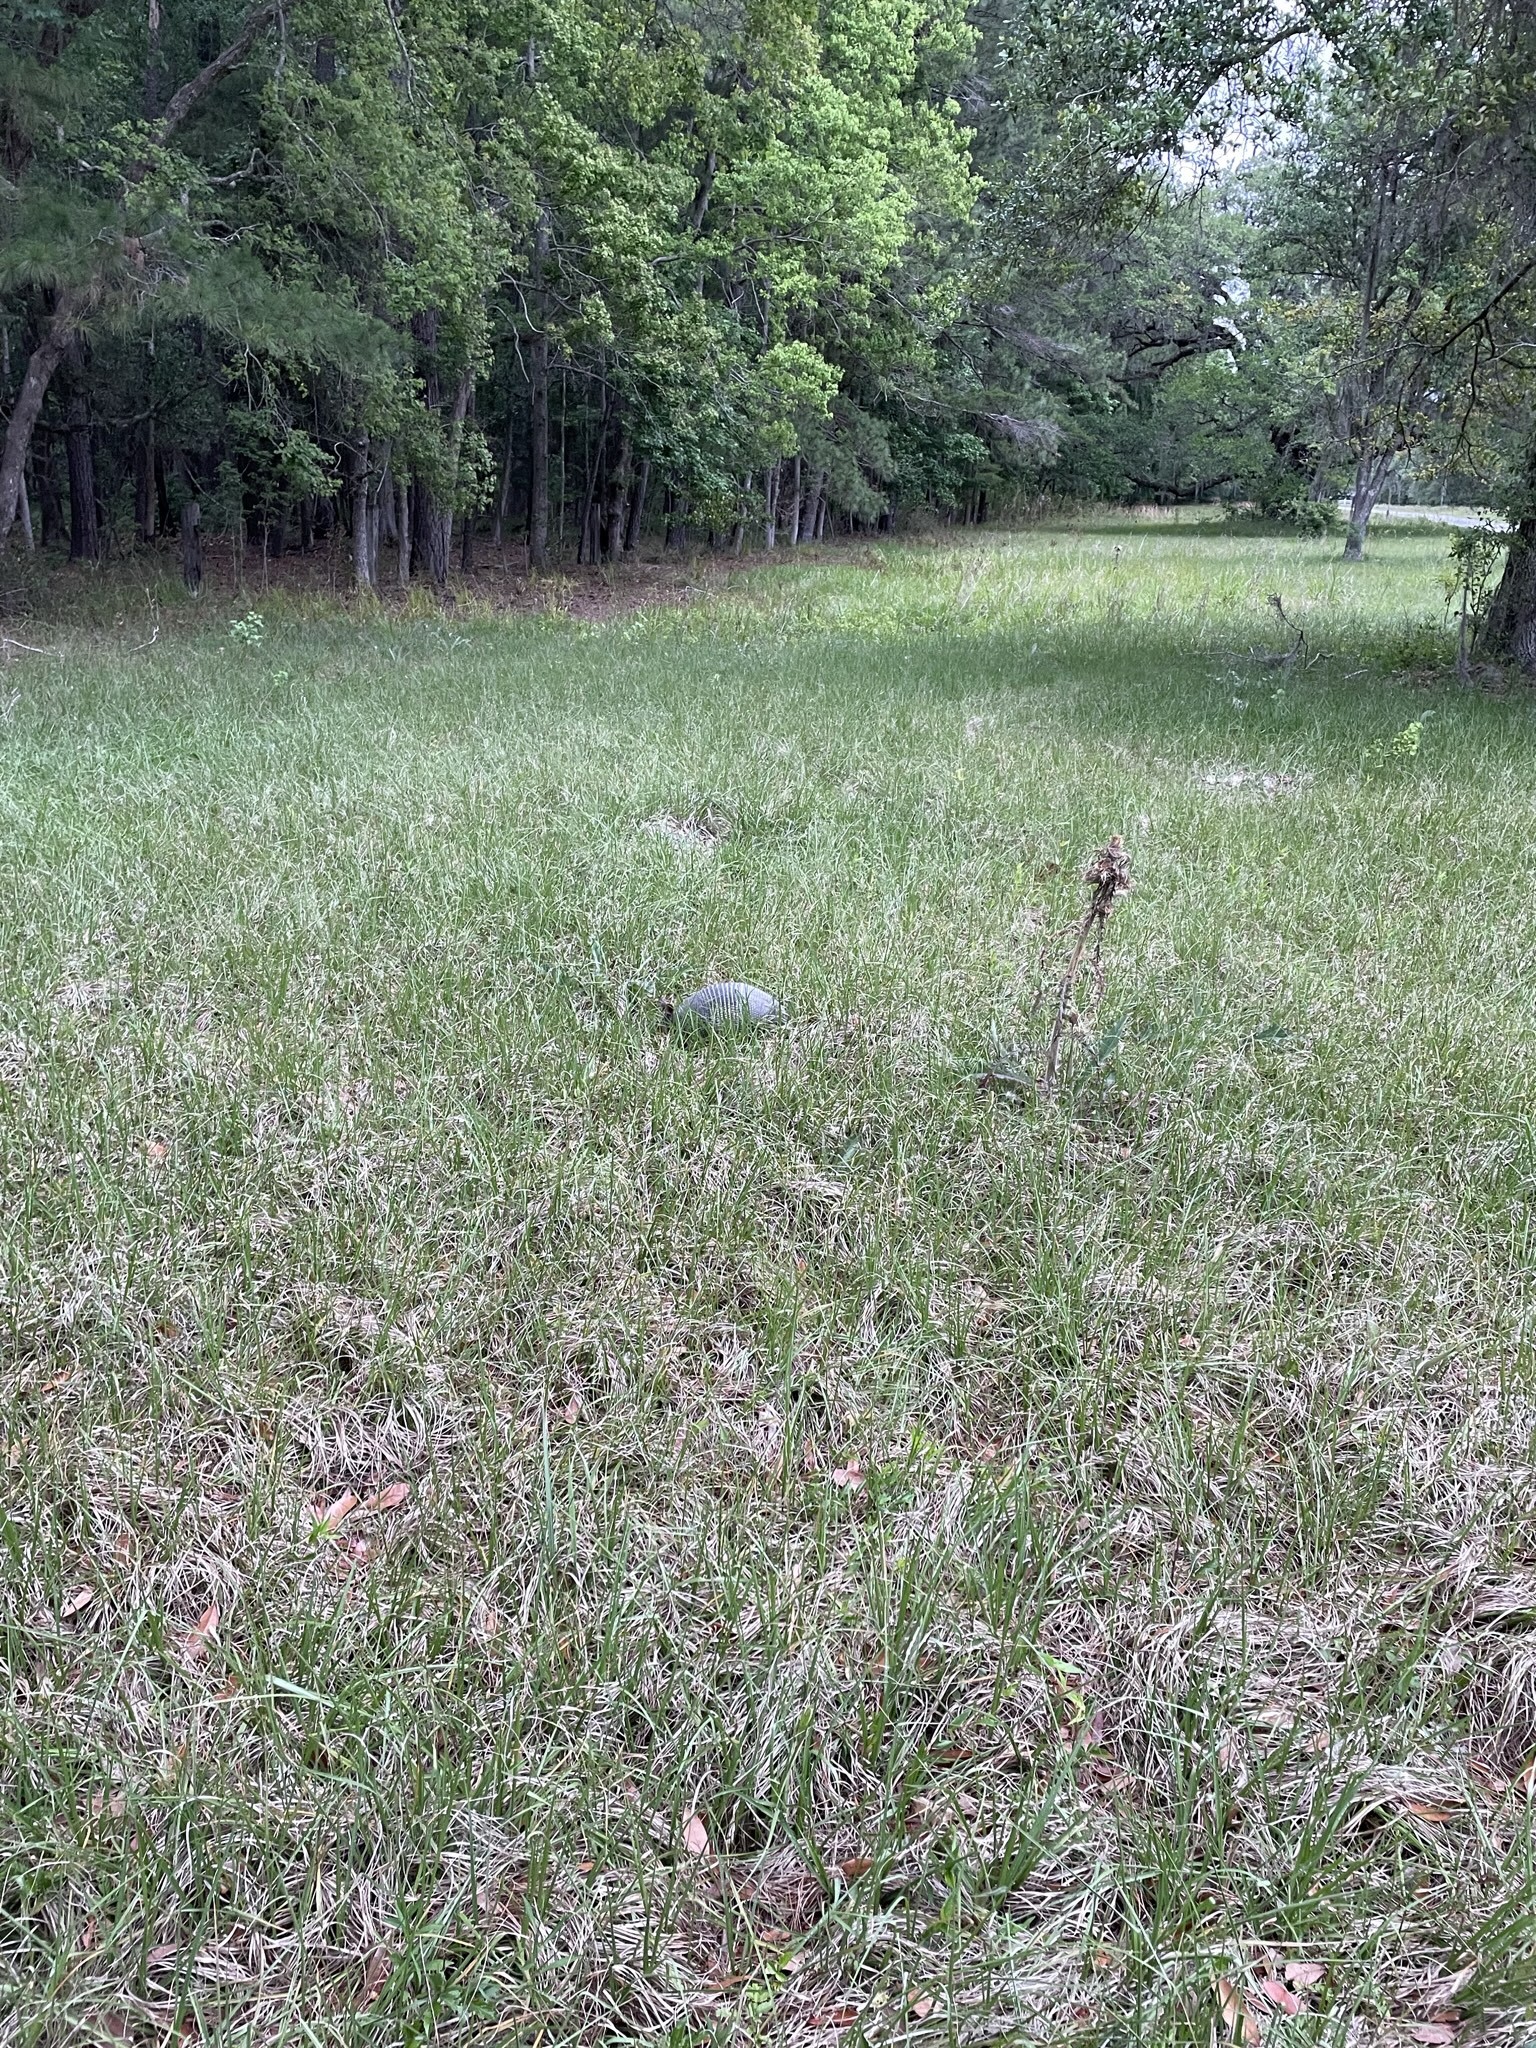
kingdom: Animalia
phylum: Chordata
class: Mammalia
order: Cingulata
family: Dasypodidae
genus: Dasypus
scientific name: Dasypus novemcinctus
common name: Nine-banded armadillo
